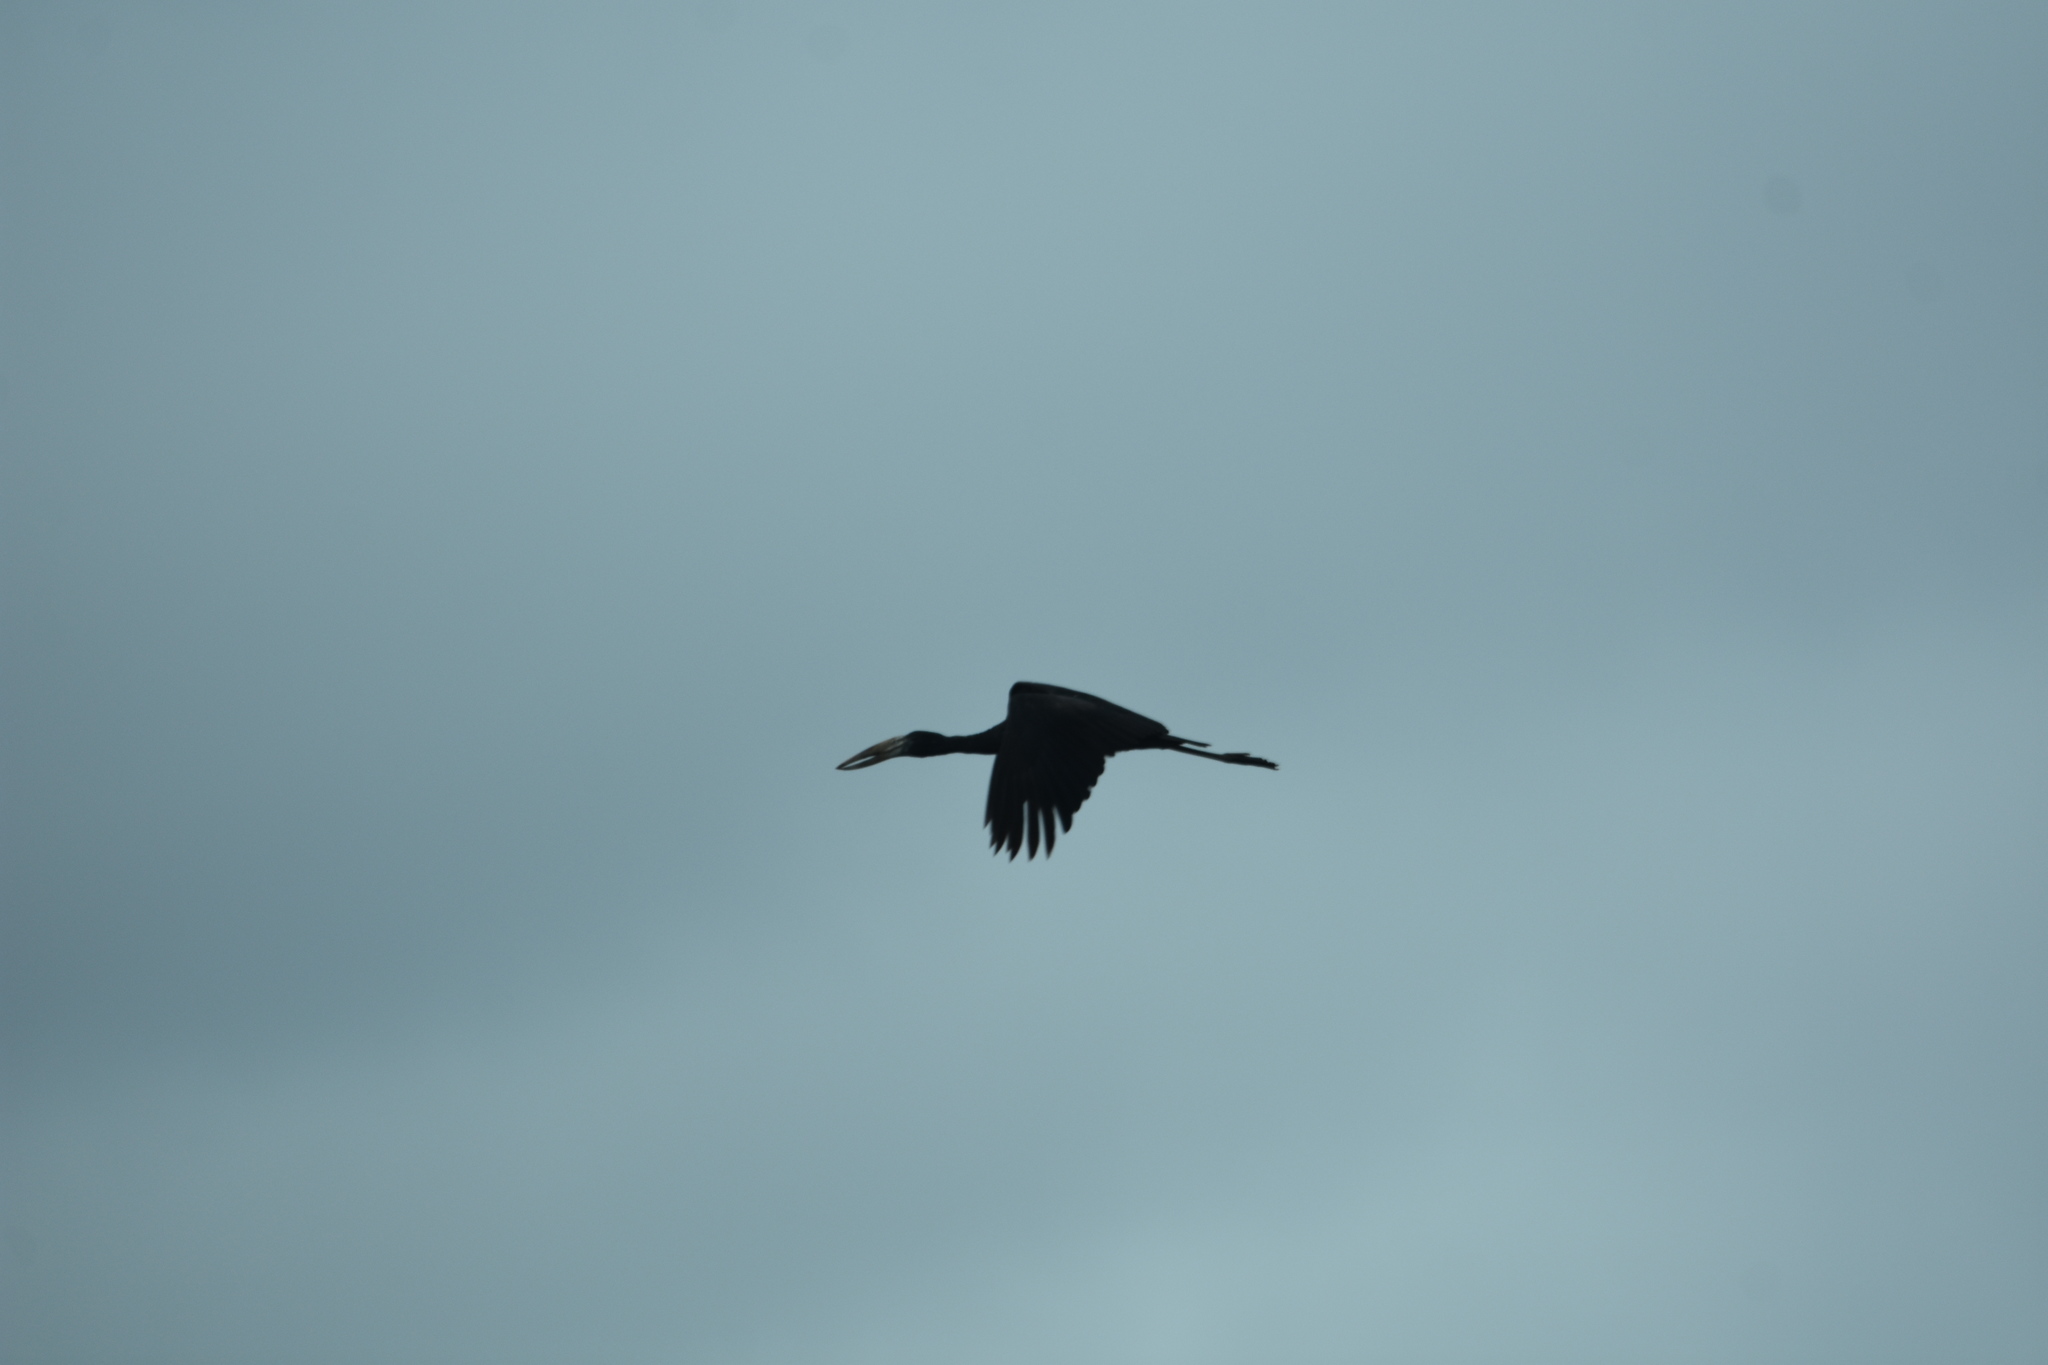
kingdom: Animalia
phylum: Chordata
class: Aves
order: Ciconiiformes
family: Ciconiidae
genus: Anastomus
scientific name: Anastomus lamelligerus
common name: African openbill
